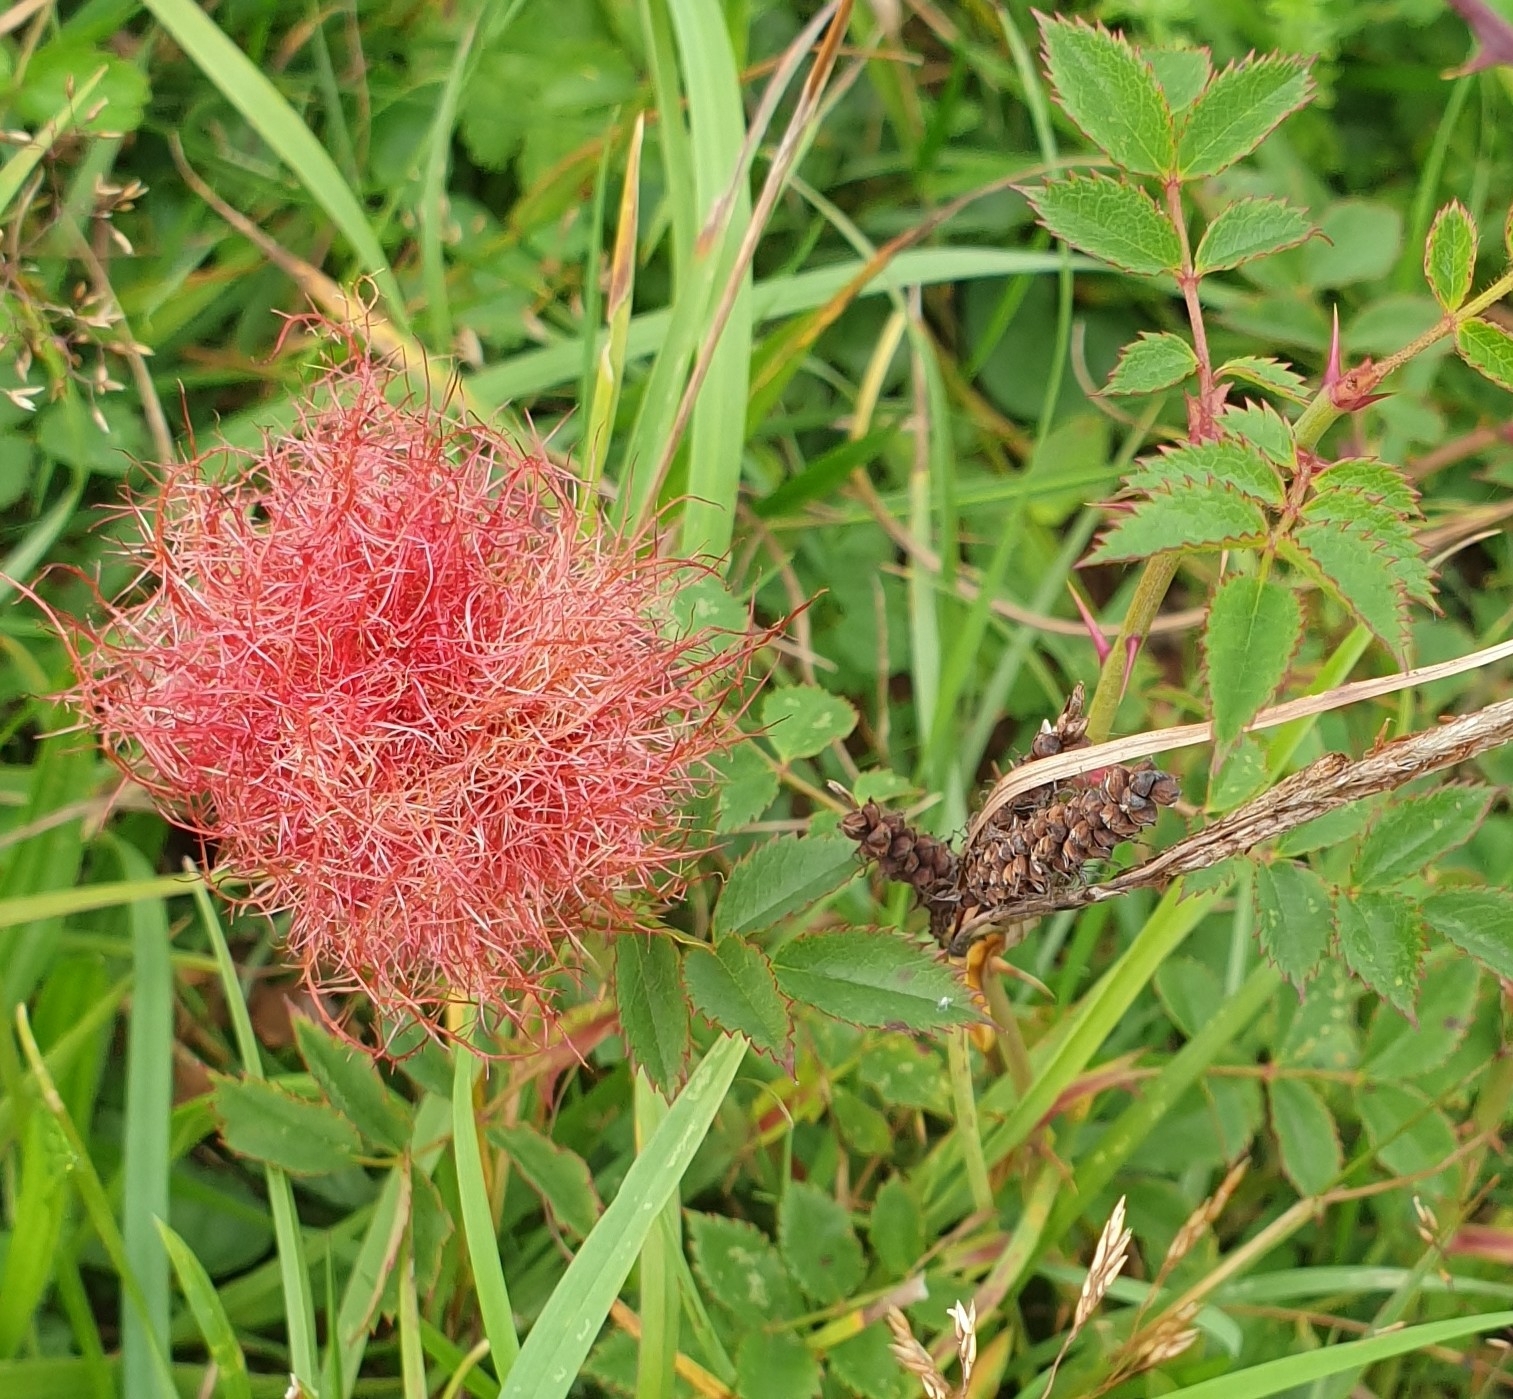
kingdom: Animalia
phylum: Arthropoda
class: Insecta
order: Hymenoptera
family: Cynipidae
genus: Diplolepis
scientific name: Diplolepis rosae
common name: Bedeguar gall
